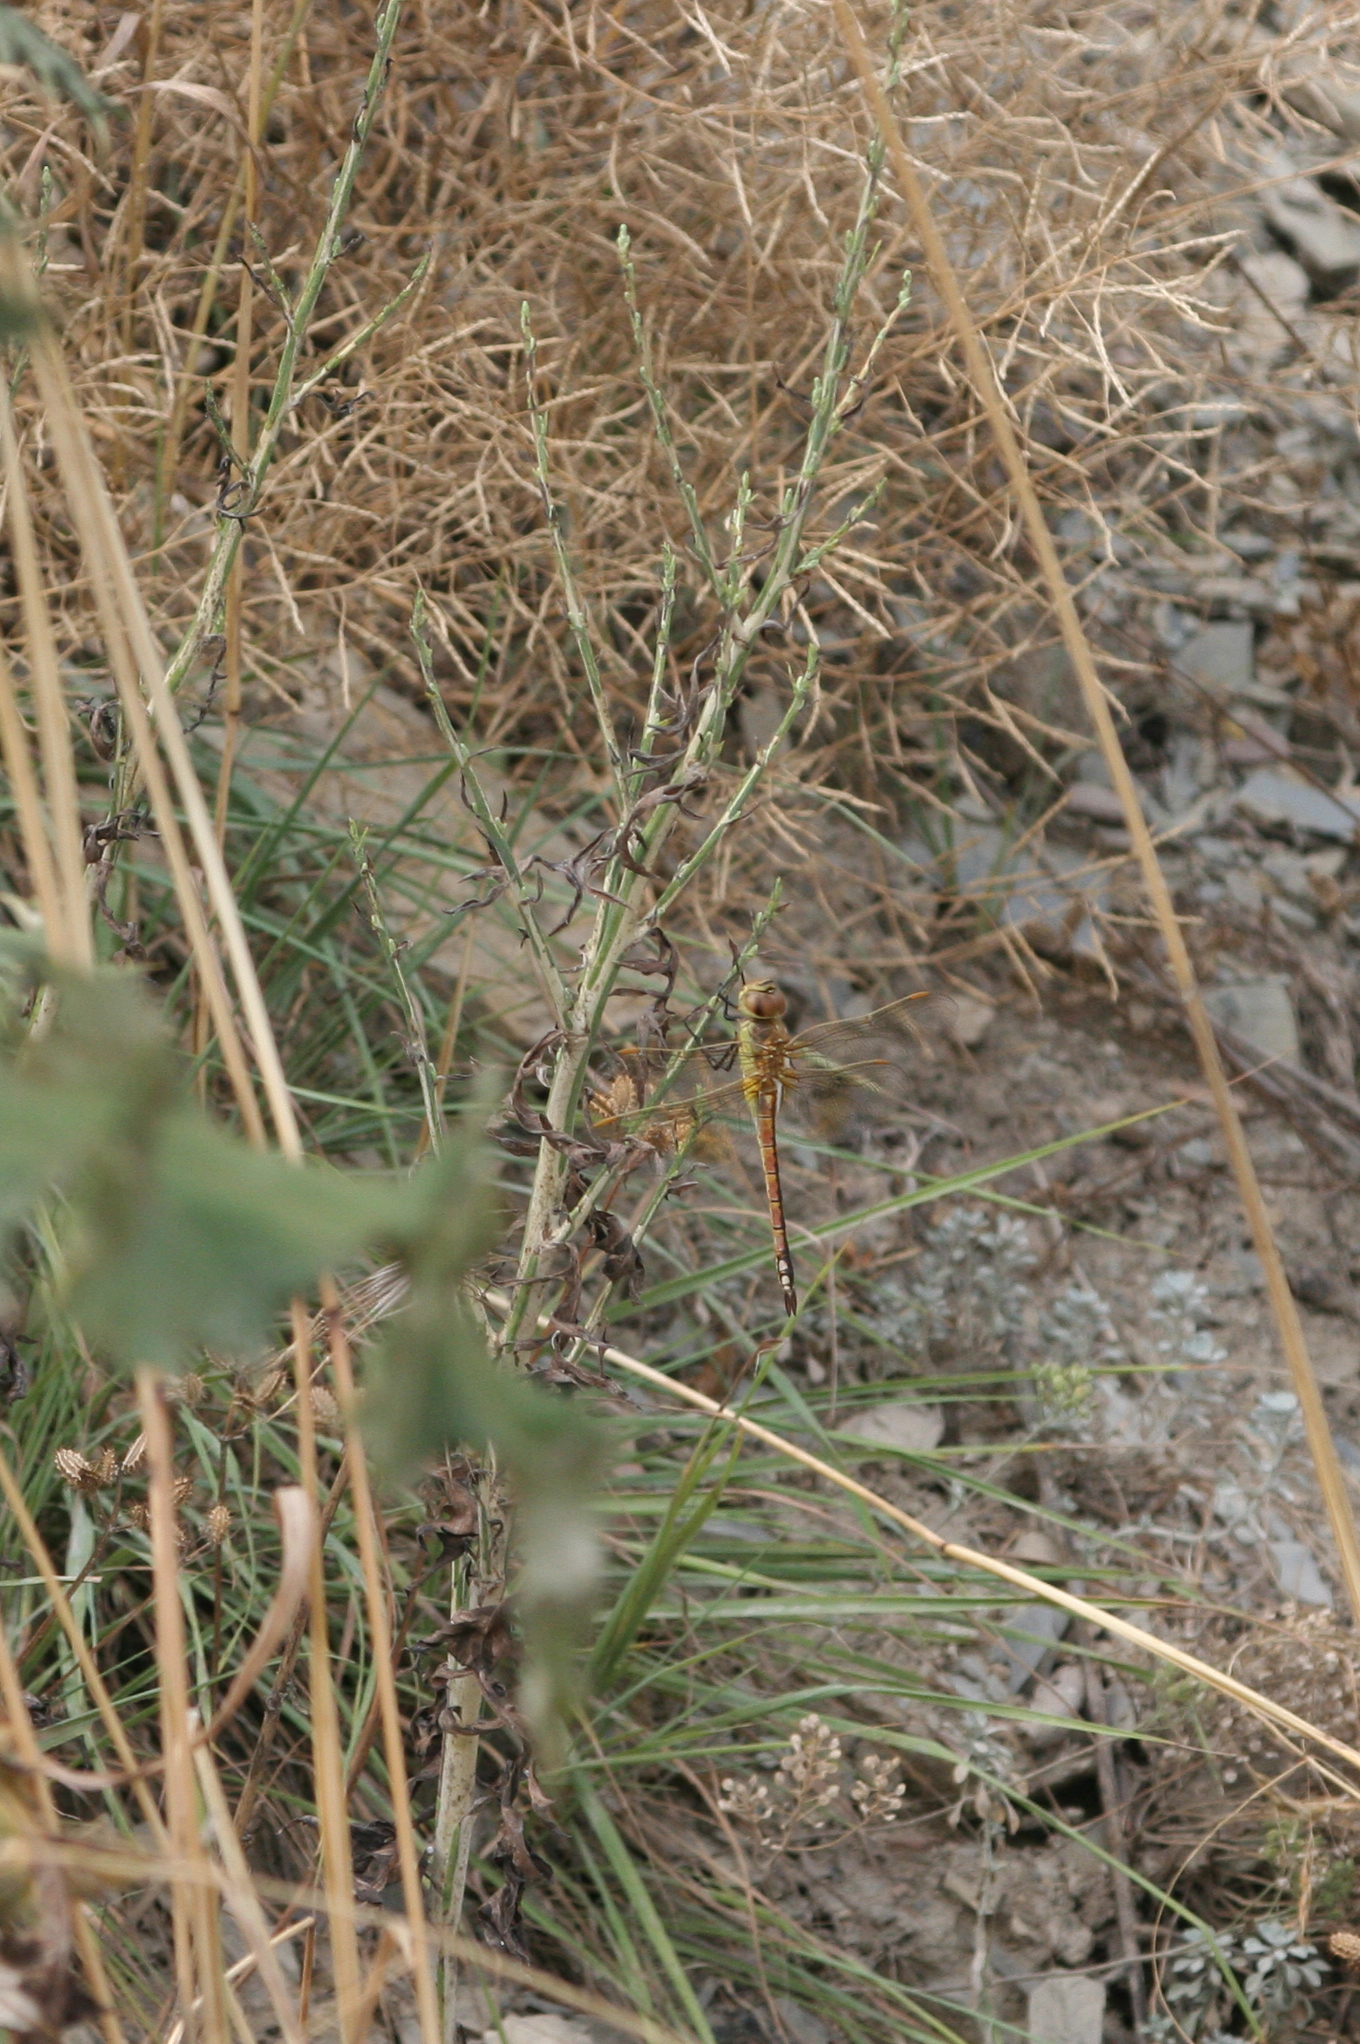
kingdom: Animalia
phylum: Arthropoda
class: Insecta
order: Odonata
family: Aeshnidae
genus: Anax
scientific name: Anax ephippiger
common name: Vagrant emperor
